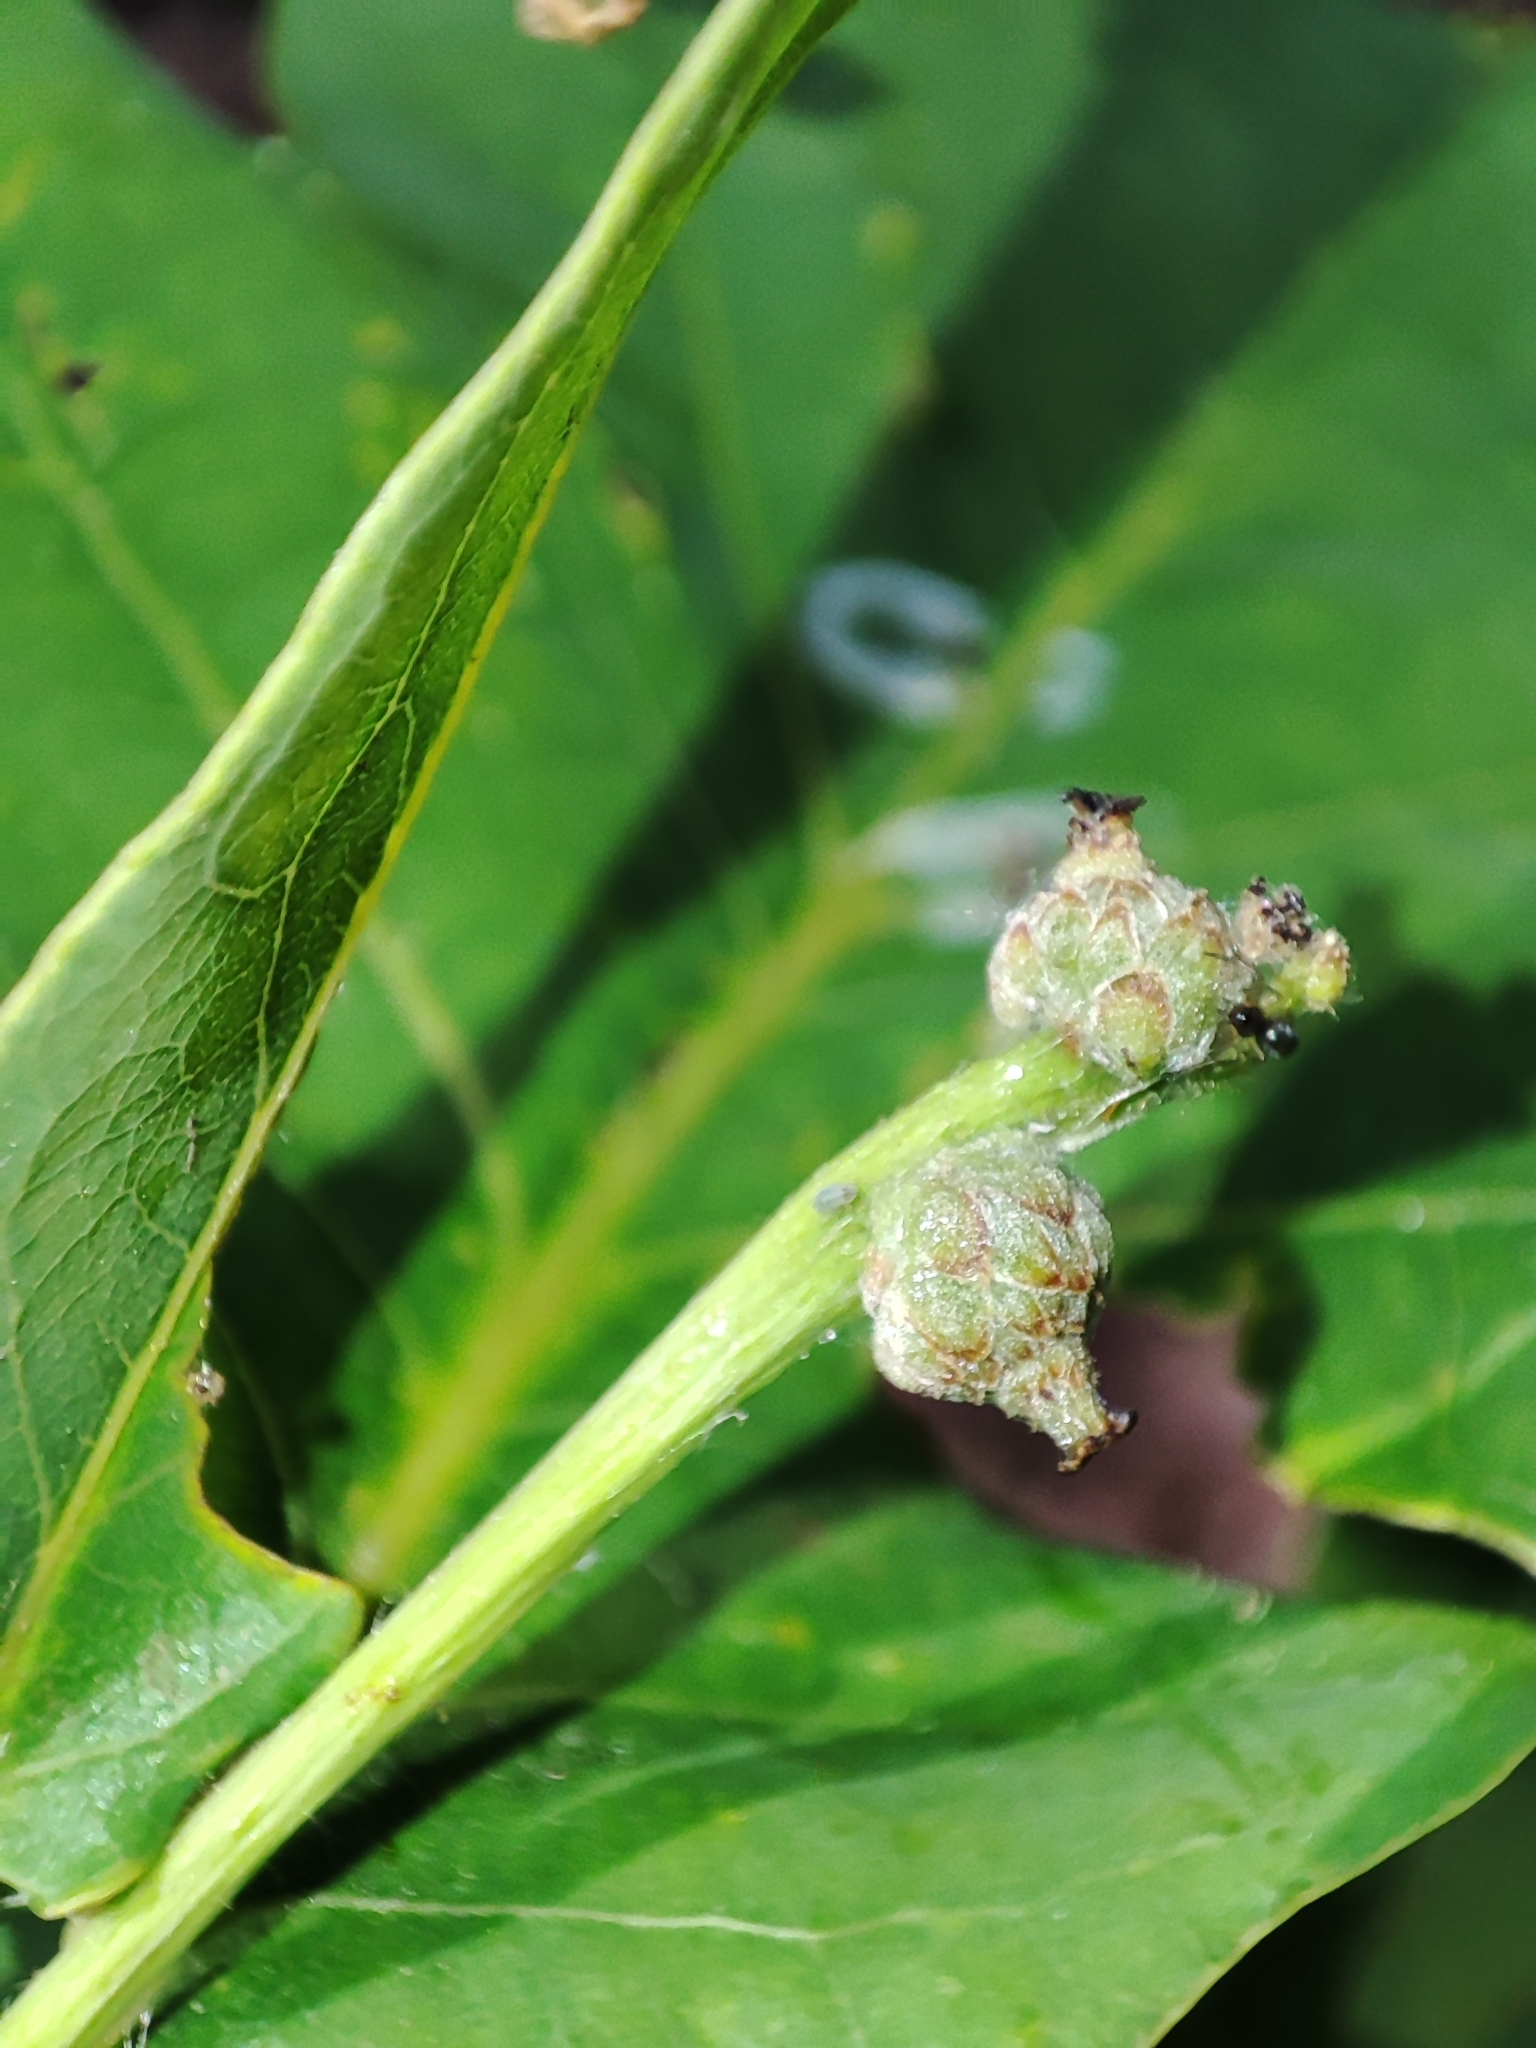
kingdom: Plantae
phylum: Tracheophyta
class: Magnoliopsida
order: Fagales
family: Fagaceae
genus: Quercus
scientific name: Quercus robur
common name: Pedunculate oak
